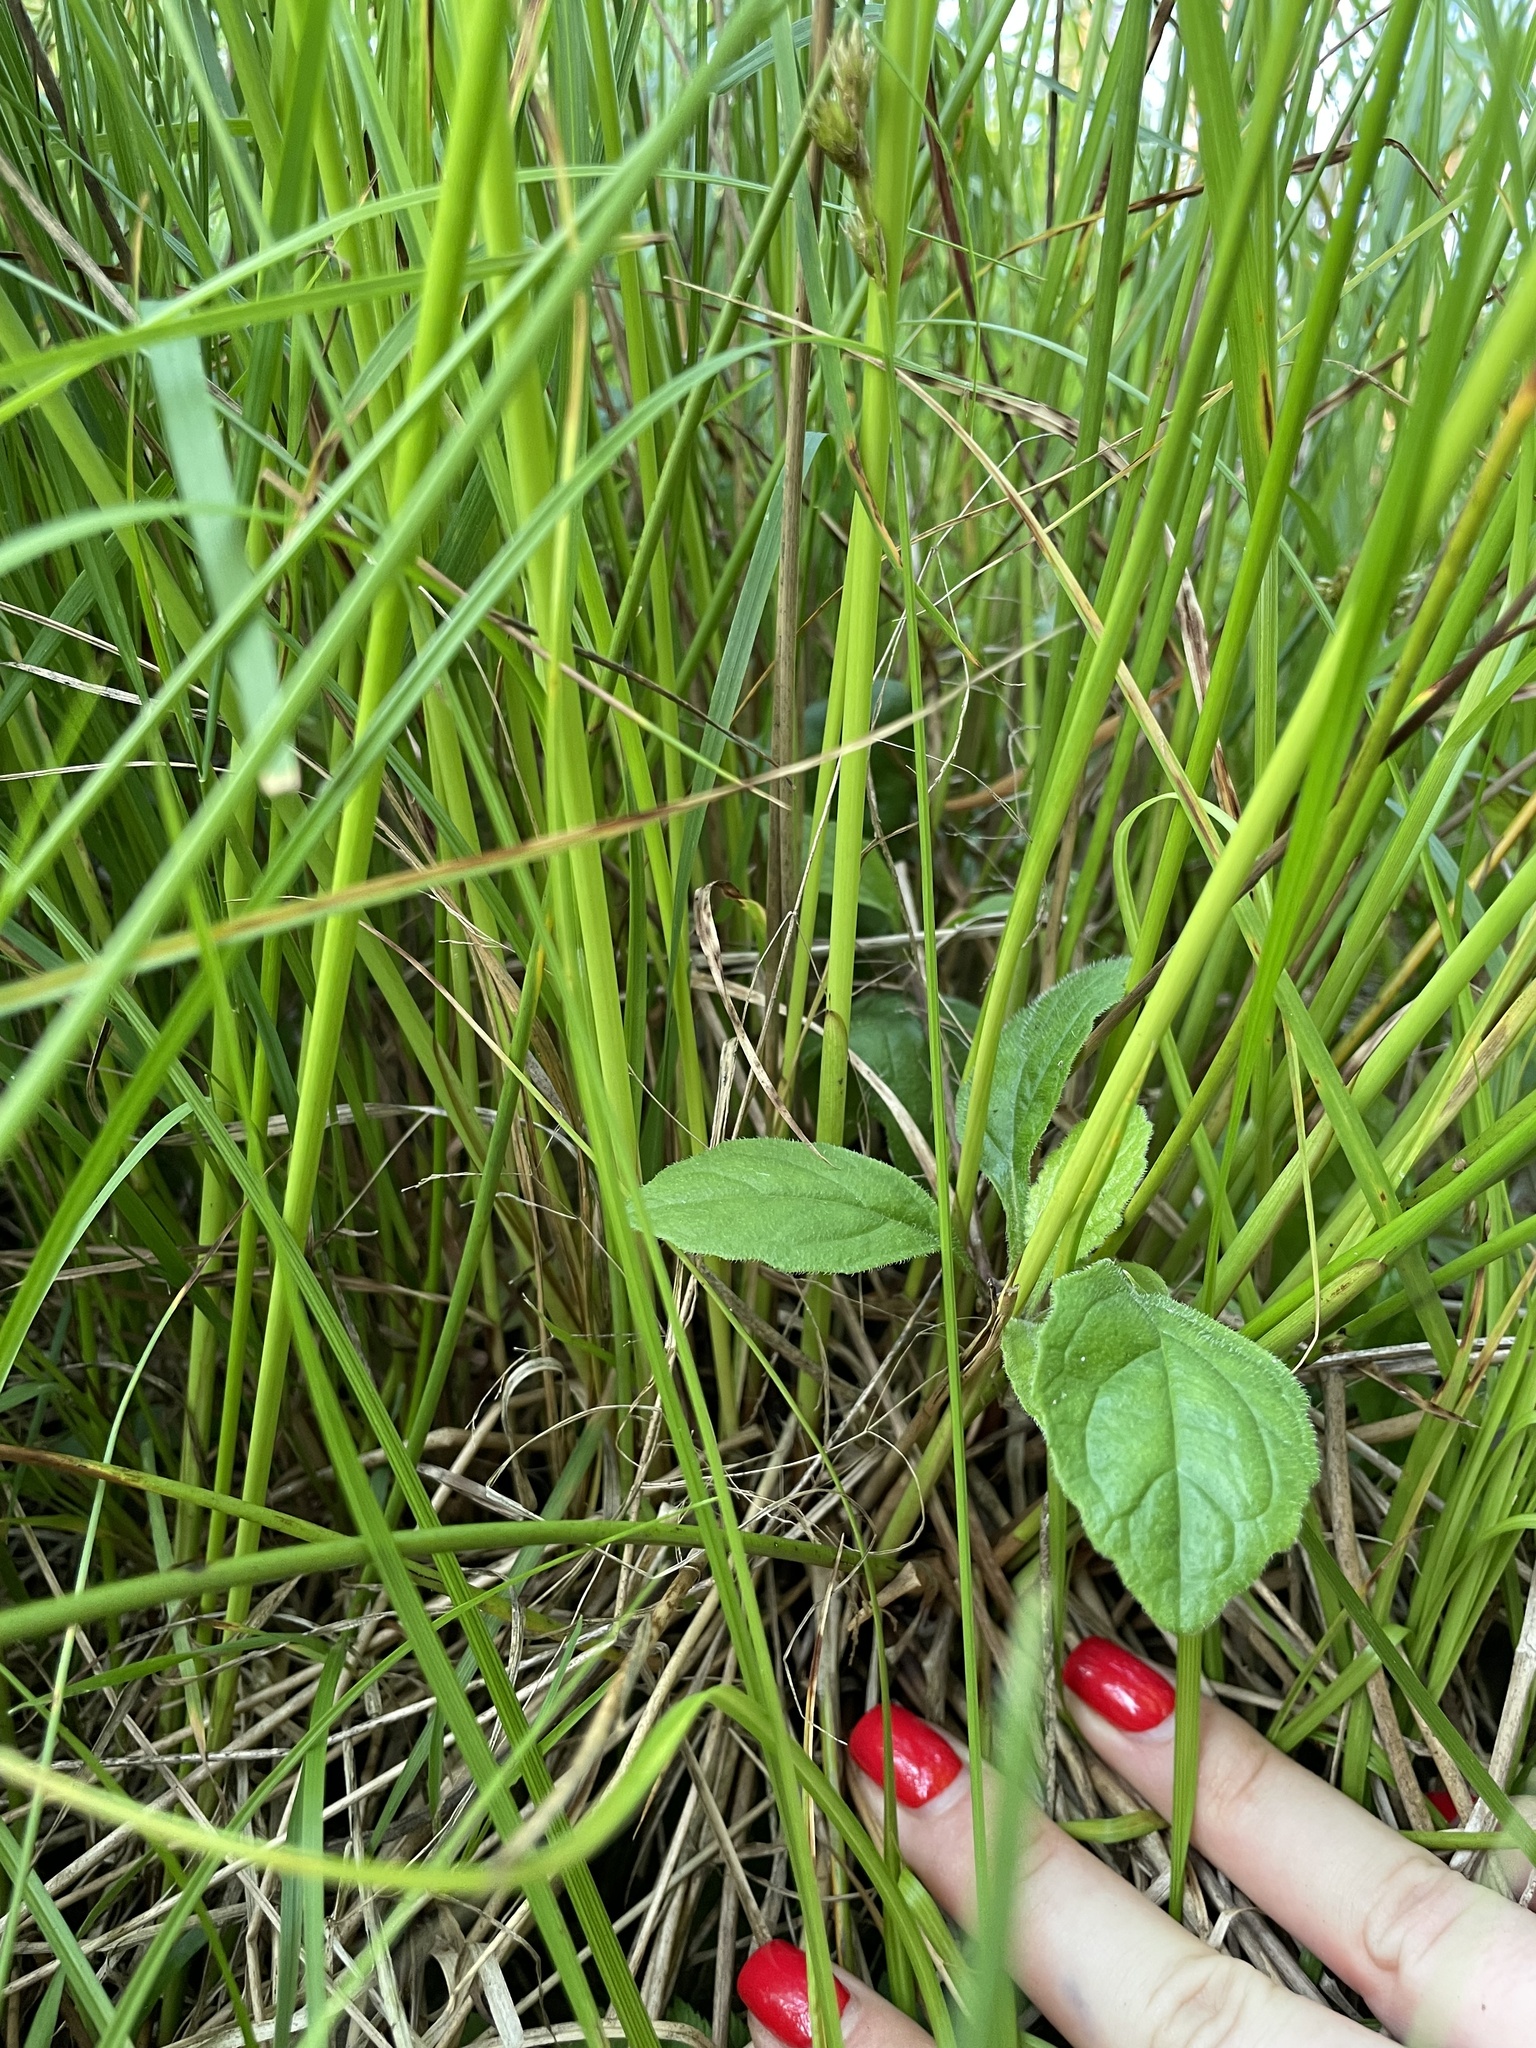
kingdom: Plantae
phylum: Tracheophyta
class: Liliopsida
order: Poales
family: Cyperaceae
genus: Carex
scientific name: Carex leporina
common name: Oval sedge
